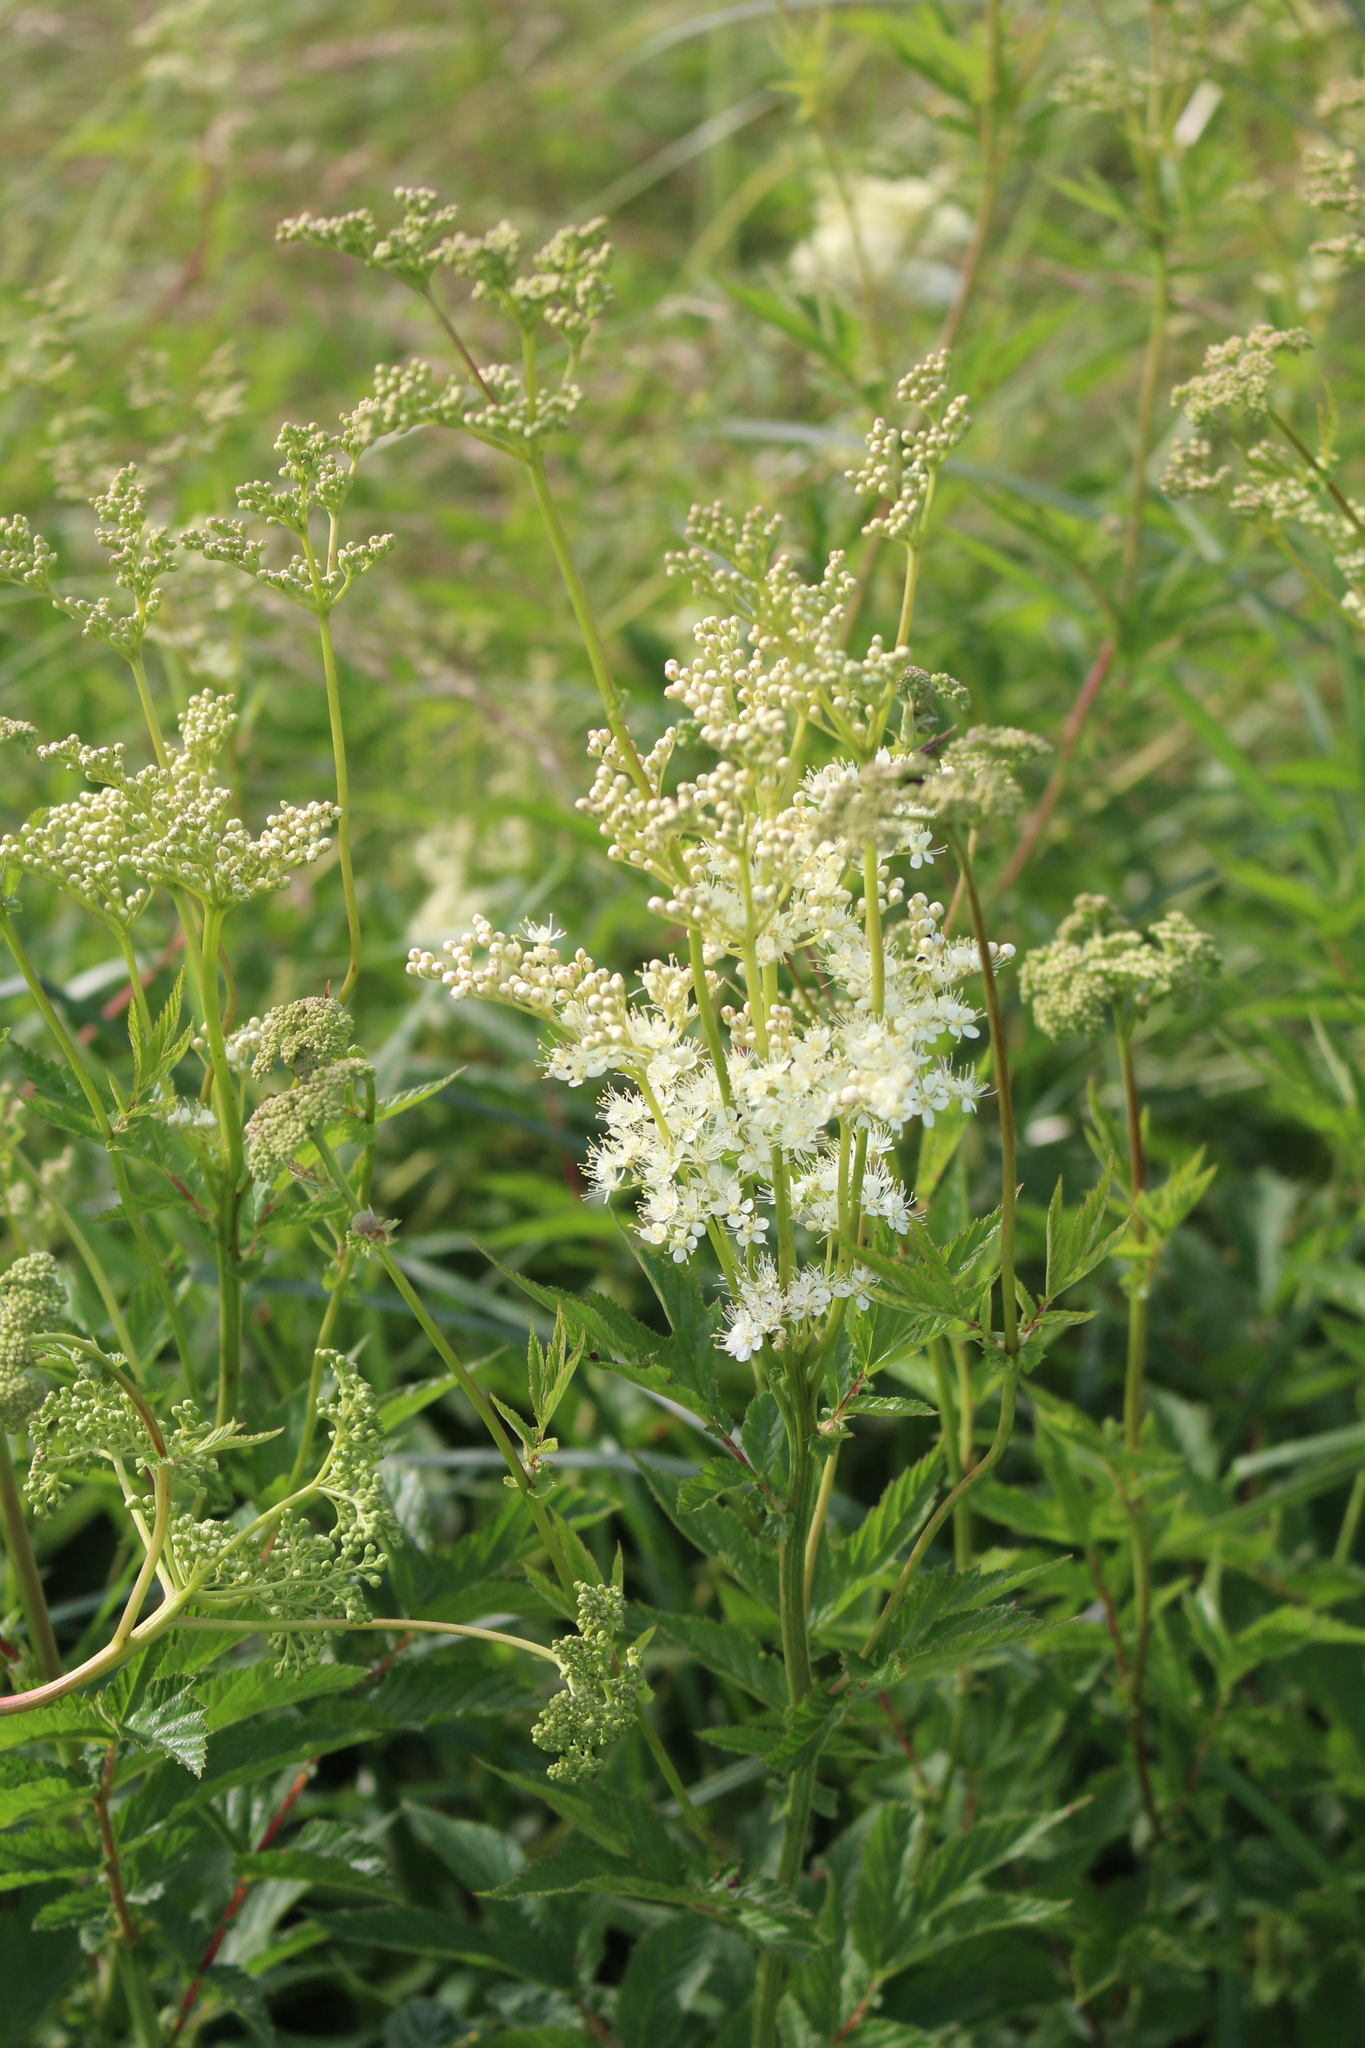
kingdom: Plantae
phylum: Tracheophyta
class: Magnoliopsida
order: Rosales
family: Rosaceae
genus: Filipendula
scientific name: Filipendula ulmaria
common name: Meadowsweet
